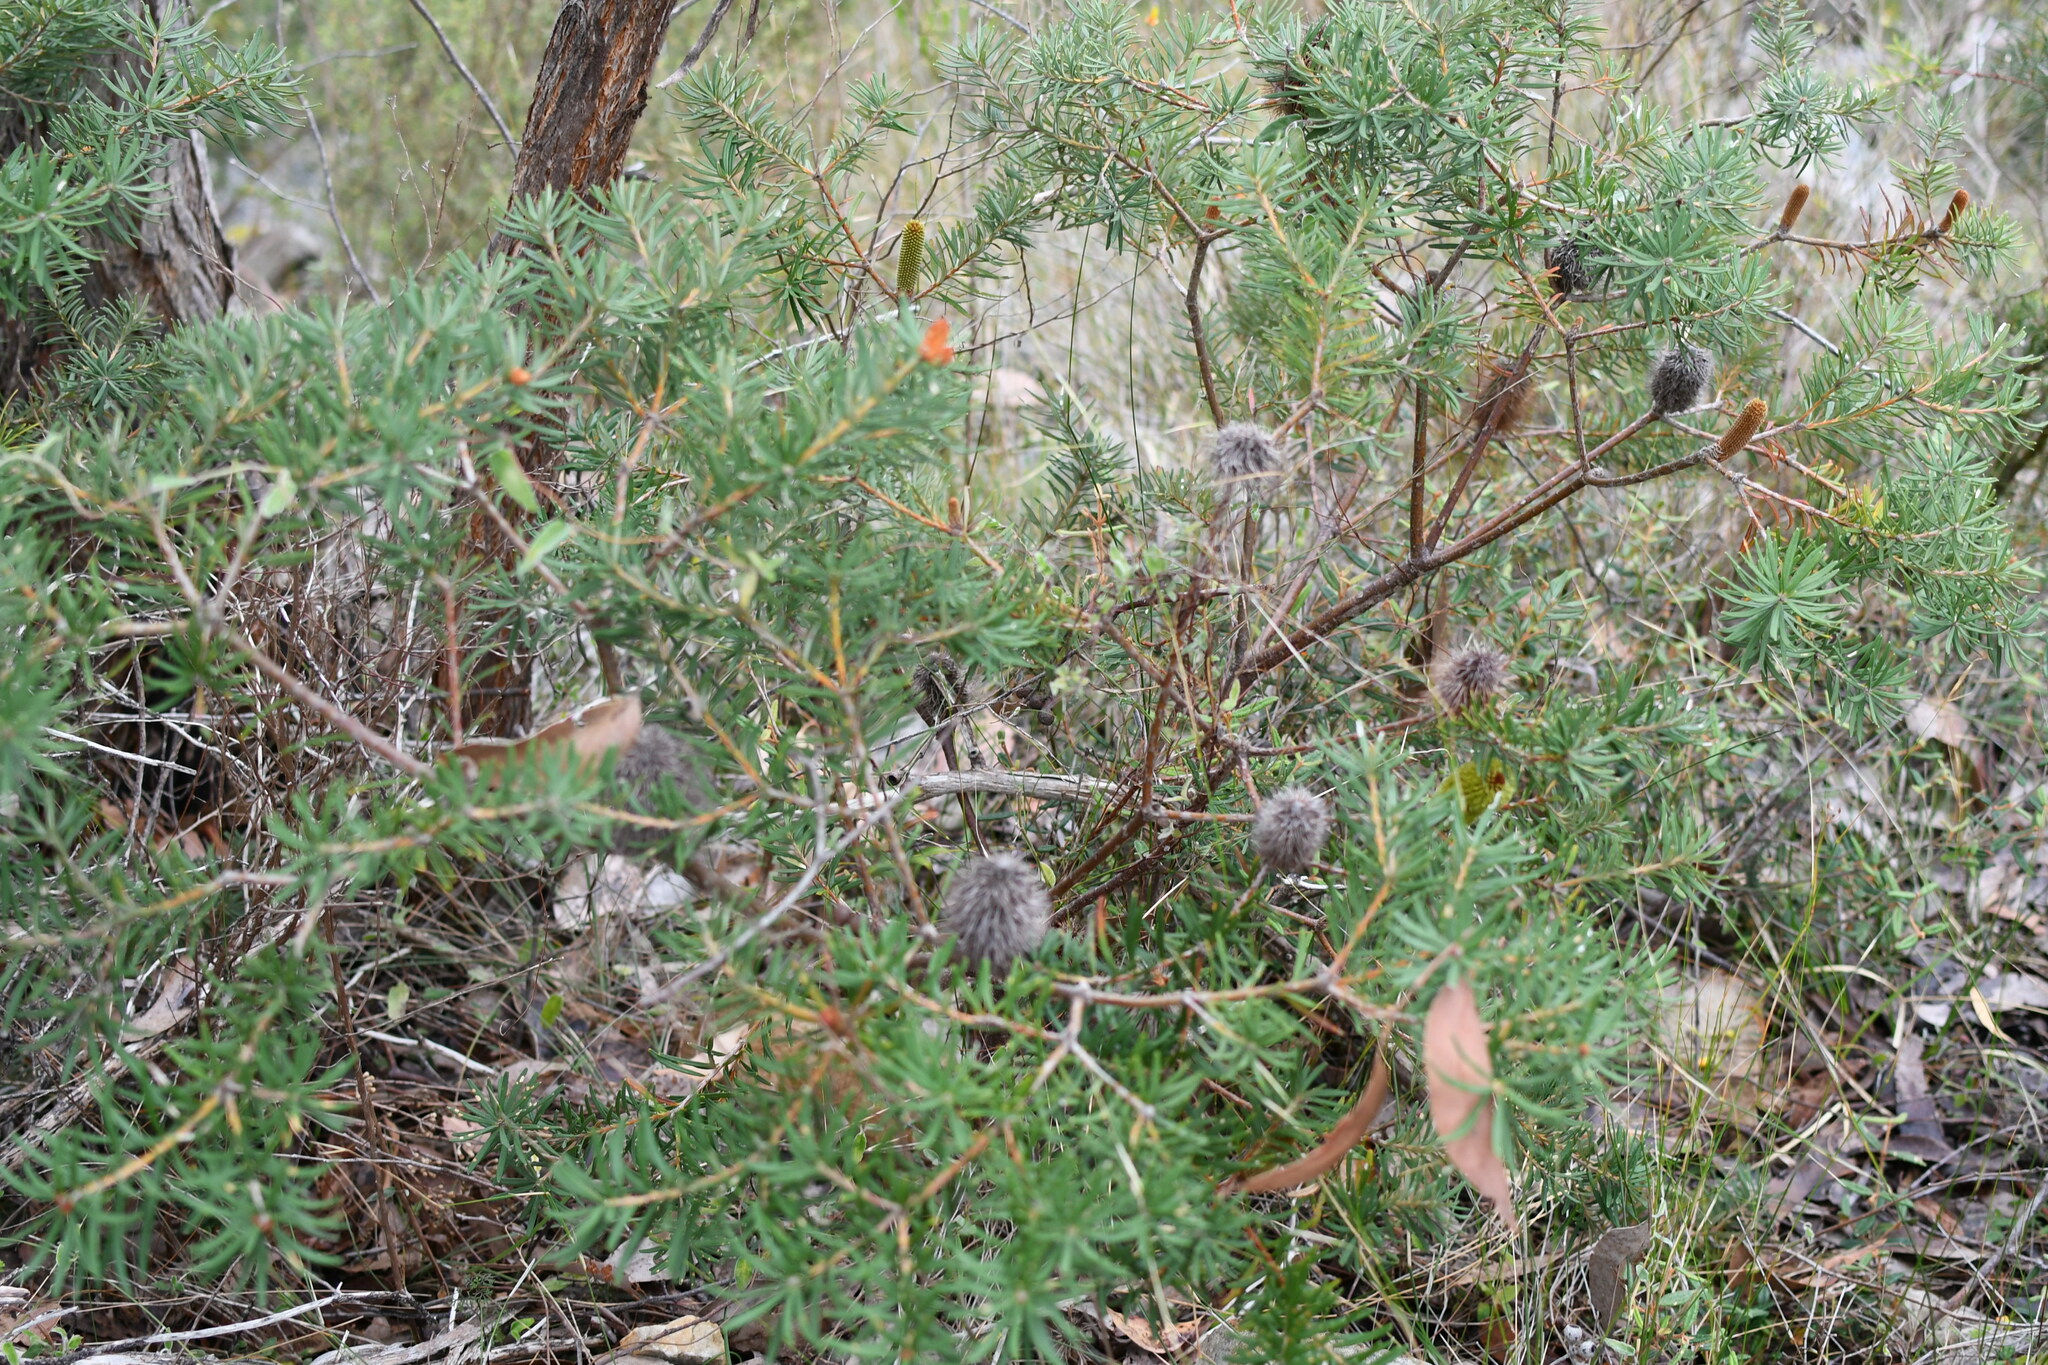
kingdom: Plantae
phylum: Tracheophyta
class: Magnoliopsida
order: Proteales
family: Proteaceae
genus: Banksia
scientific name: Banksia marginata
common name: Silver banksia
